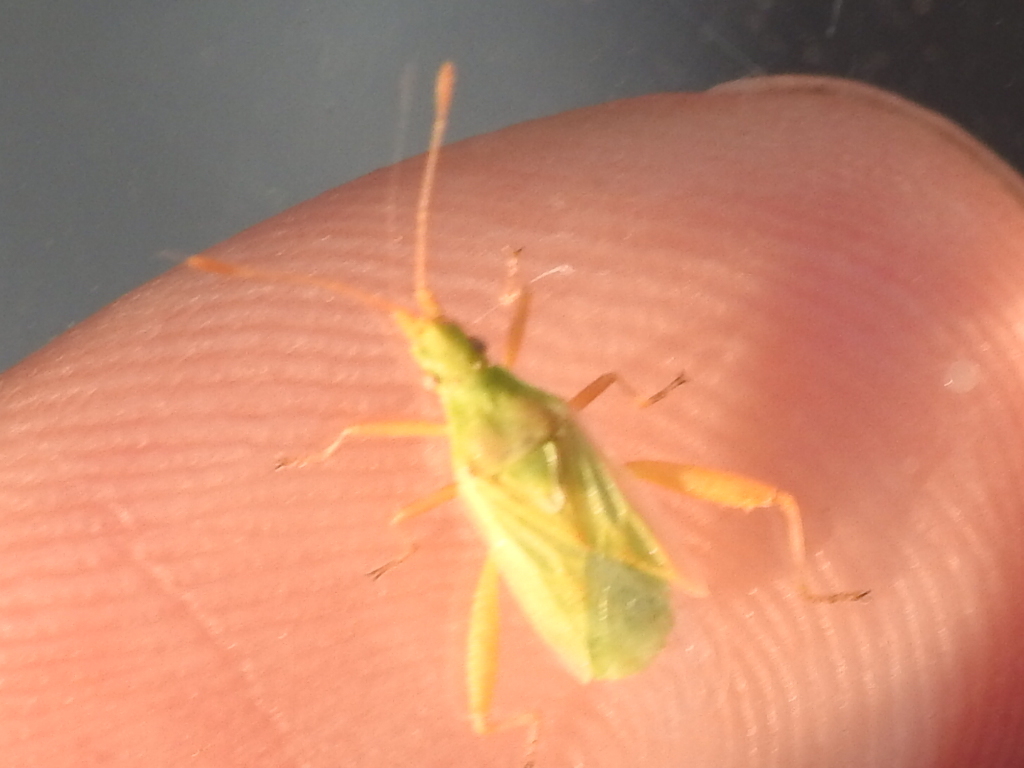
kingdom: Animalia
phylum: Arthropoda
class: Insecta
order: Hemiptera
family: Rhopalidae
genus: Harmostes
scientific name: Harmostes reflexulus
